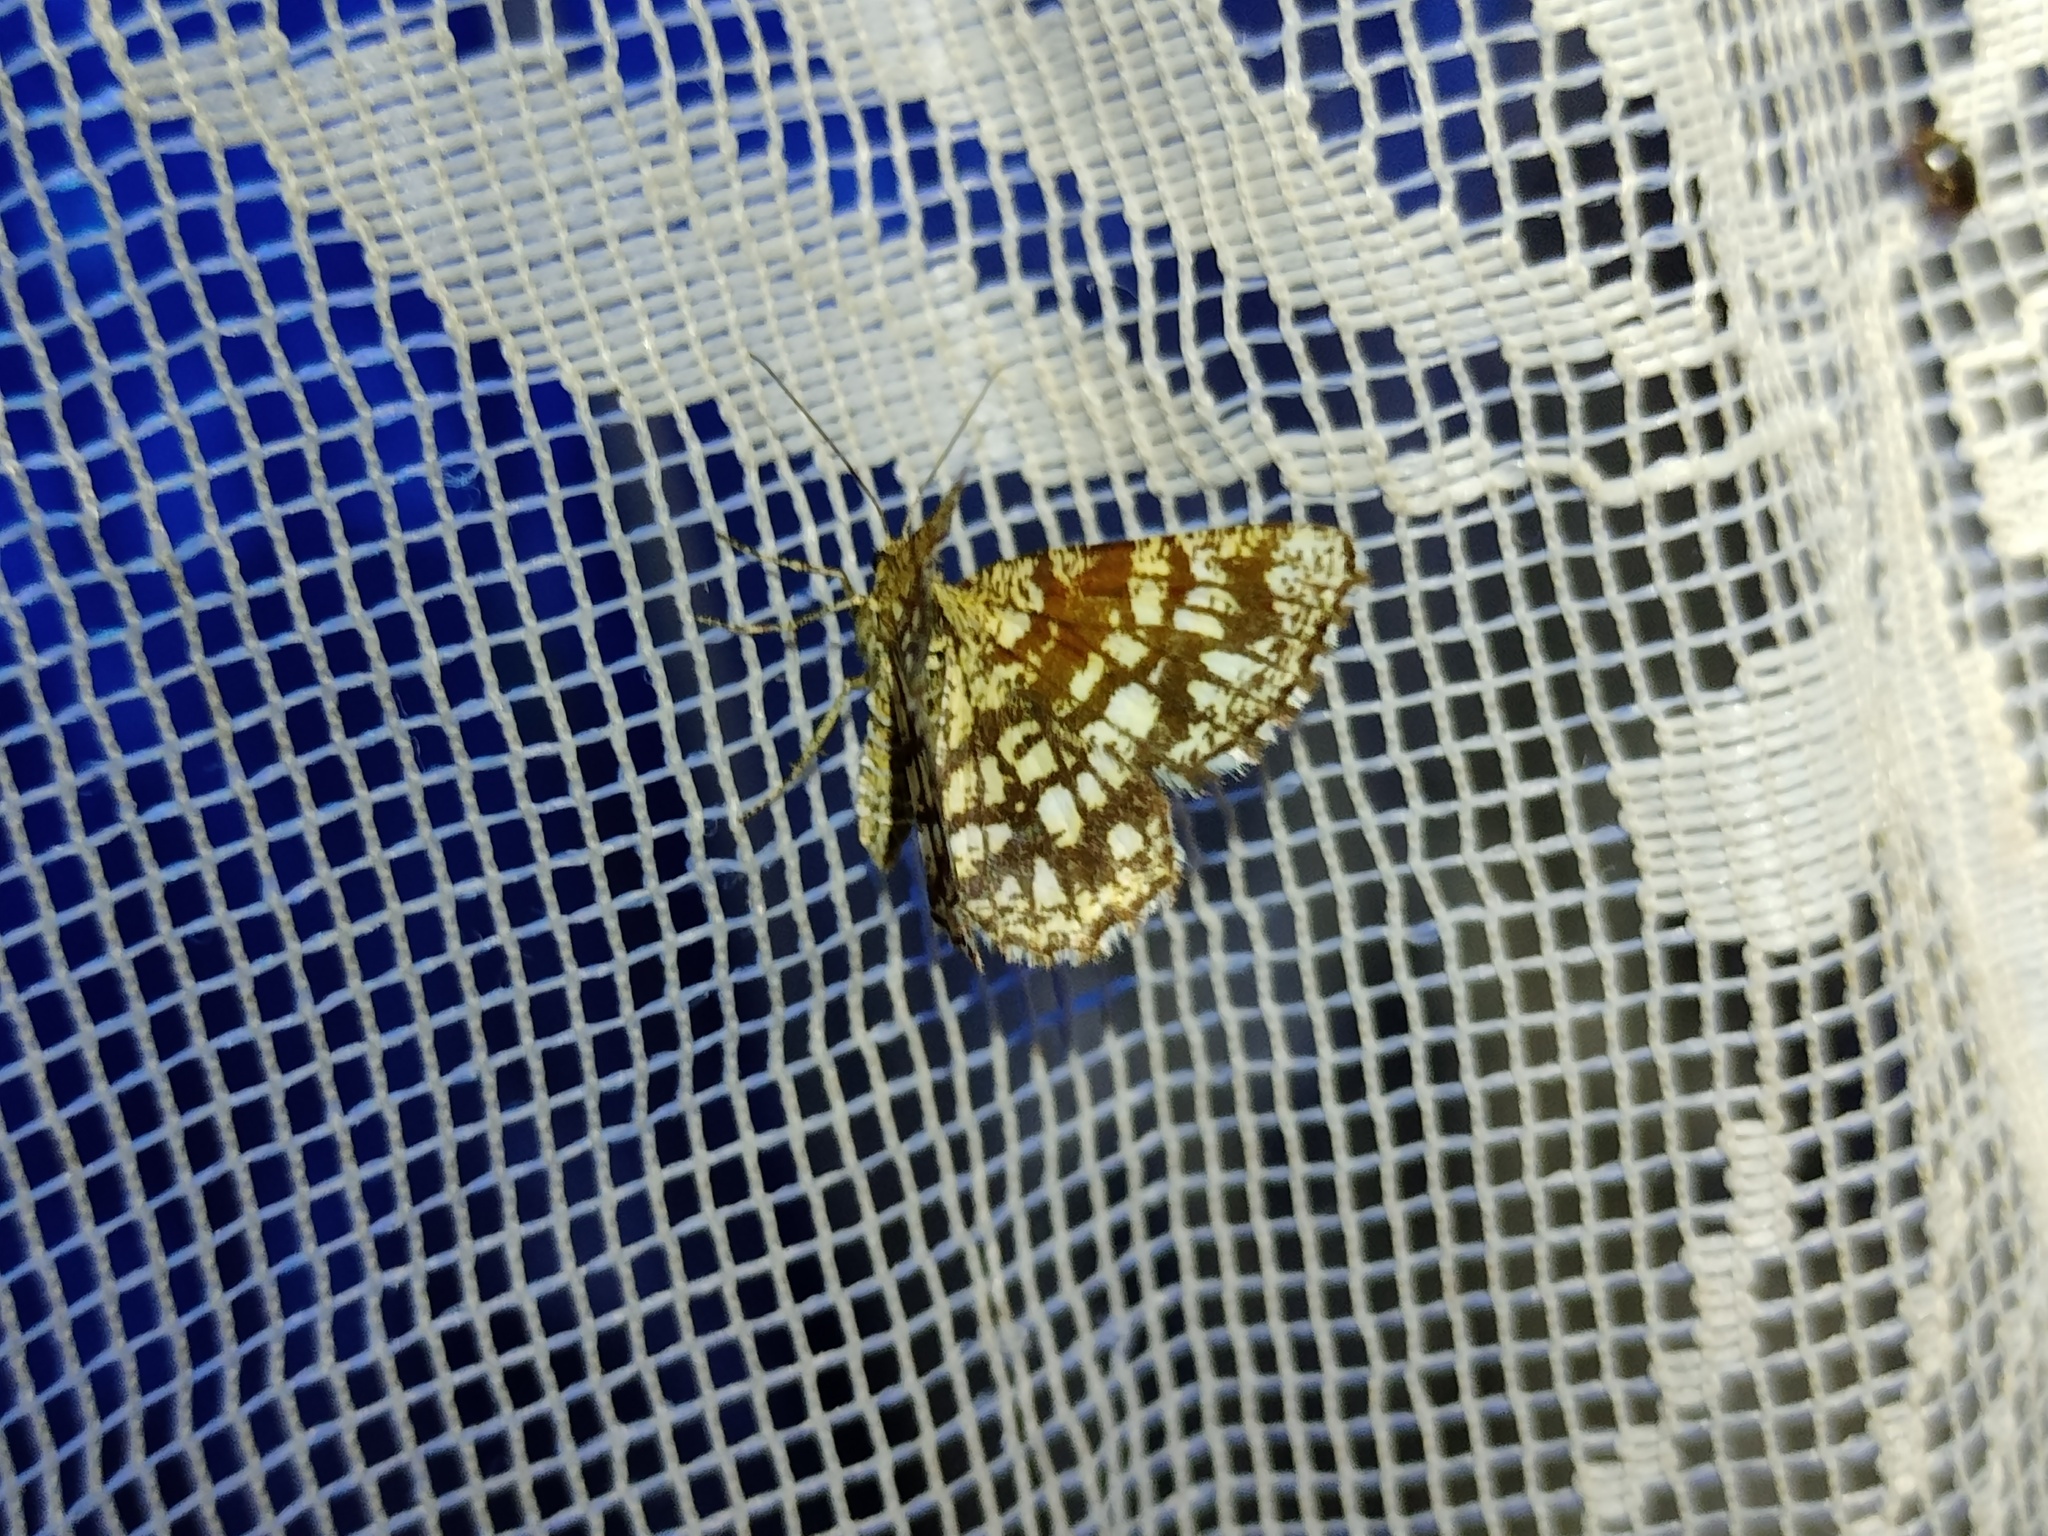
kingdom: Animalia
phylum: Arthropoda
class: Insecta
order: Lepidoptera
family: Geometridae
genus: Chiasmia
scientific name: Chiasmia clathrata
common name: Latticed heath
